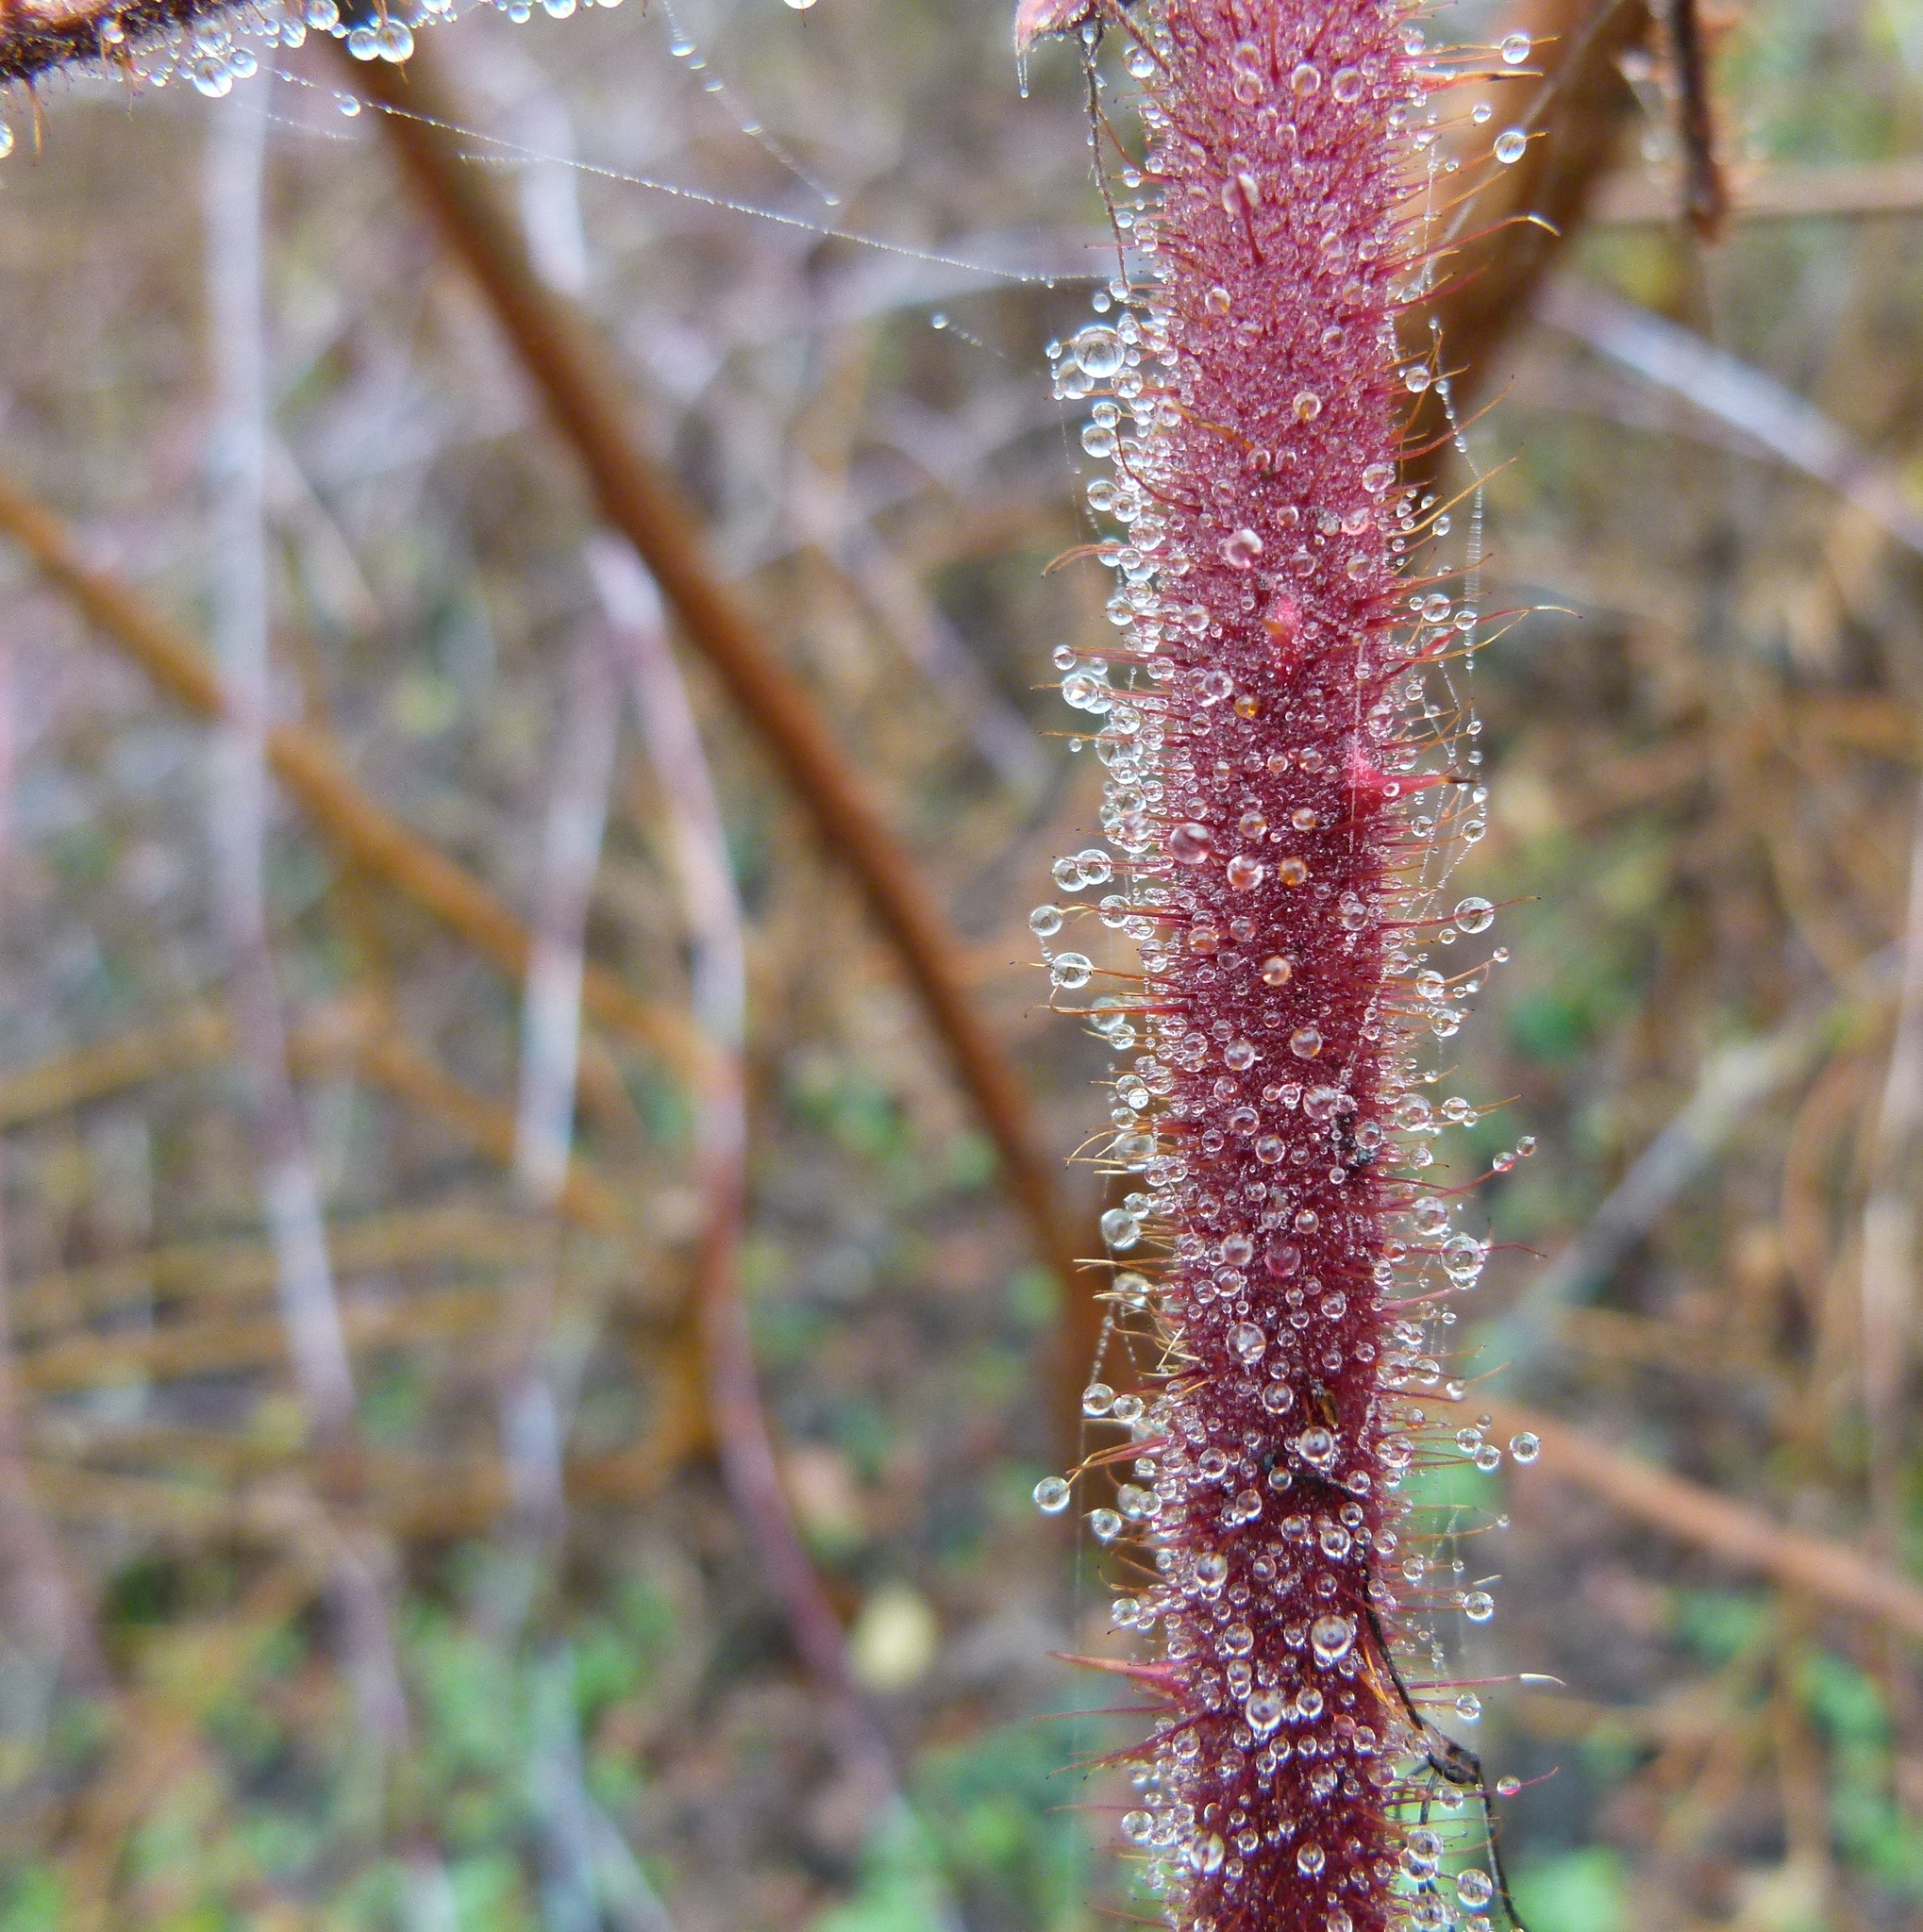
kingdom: Plantae
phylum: Tracheophyta
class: Magnoliopsida
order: Rosales
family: Rosaceae
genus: Rubus
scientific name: Rubus phoenicolasius
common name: Japanese wineberry
